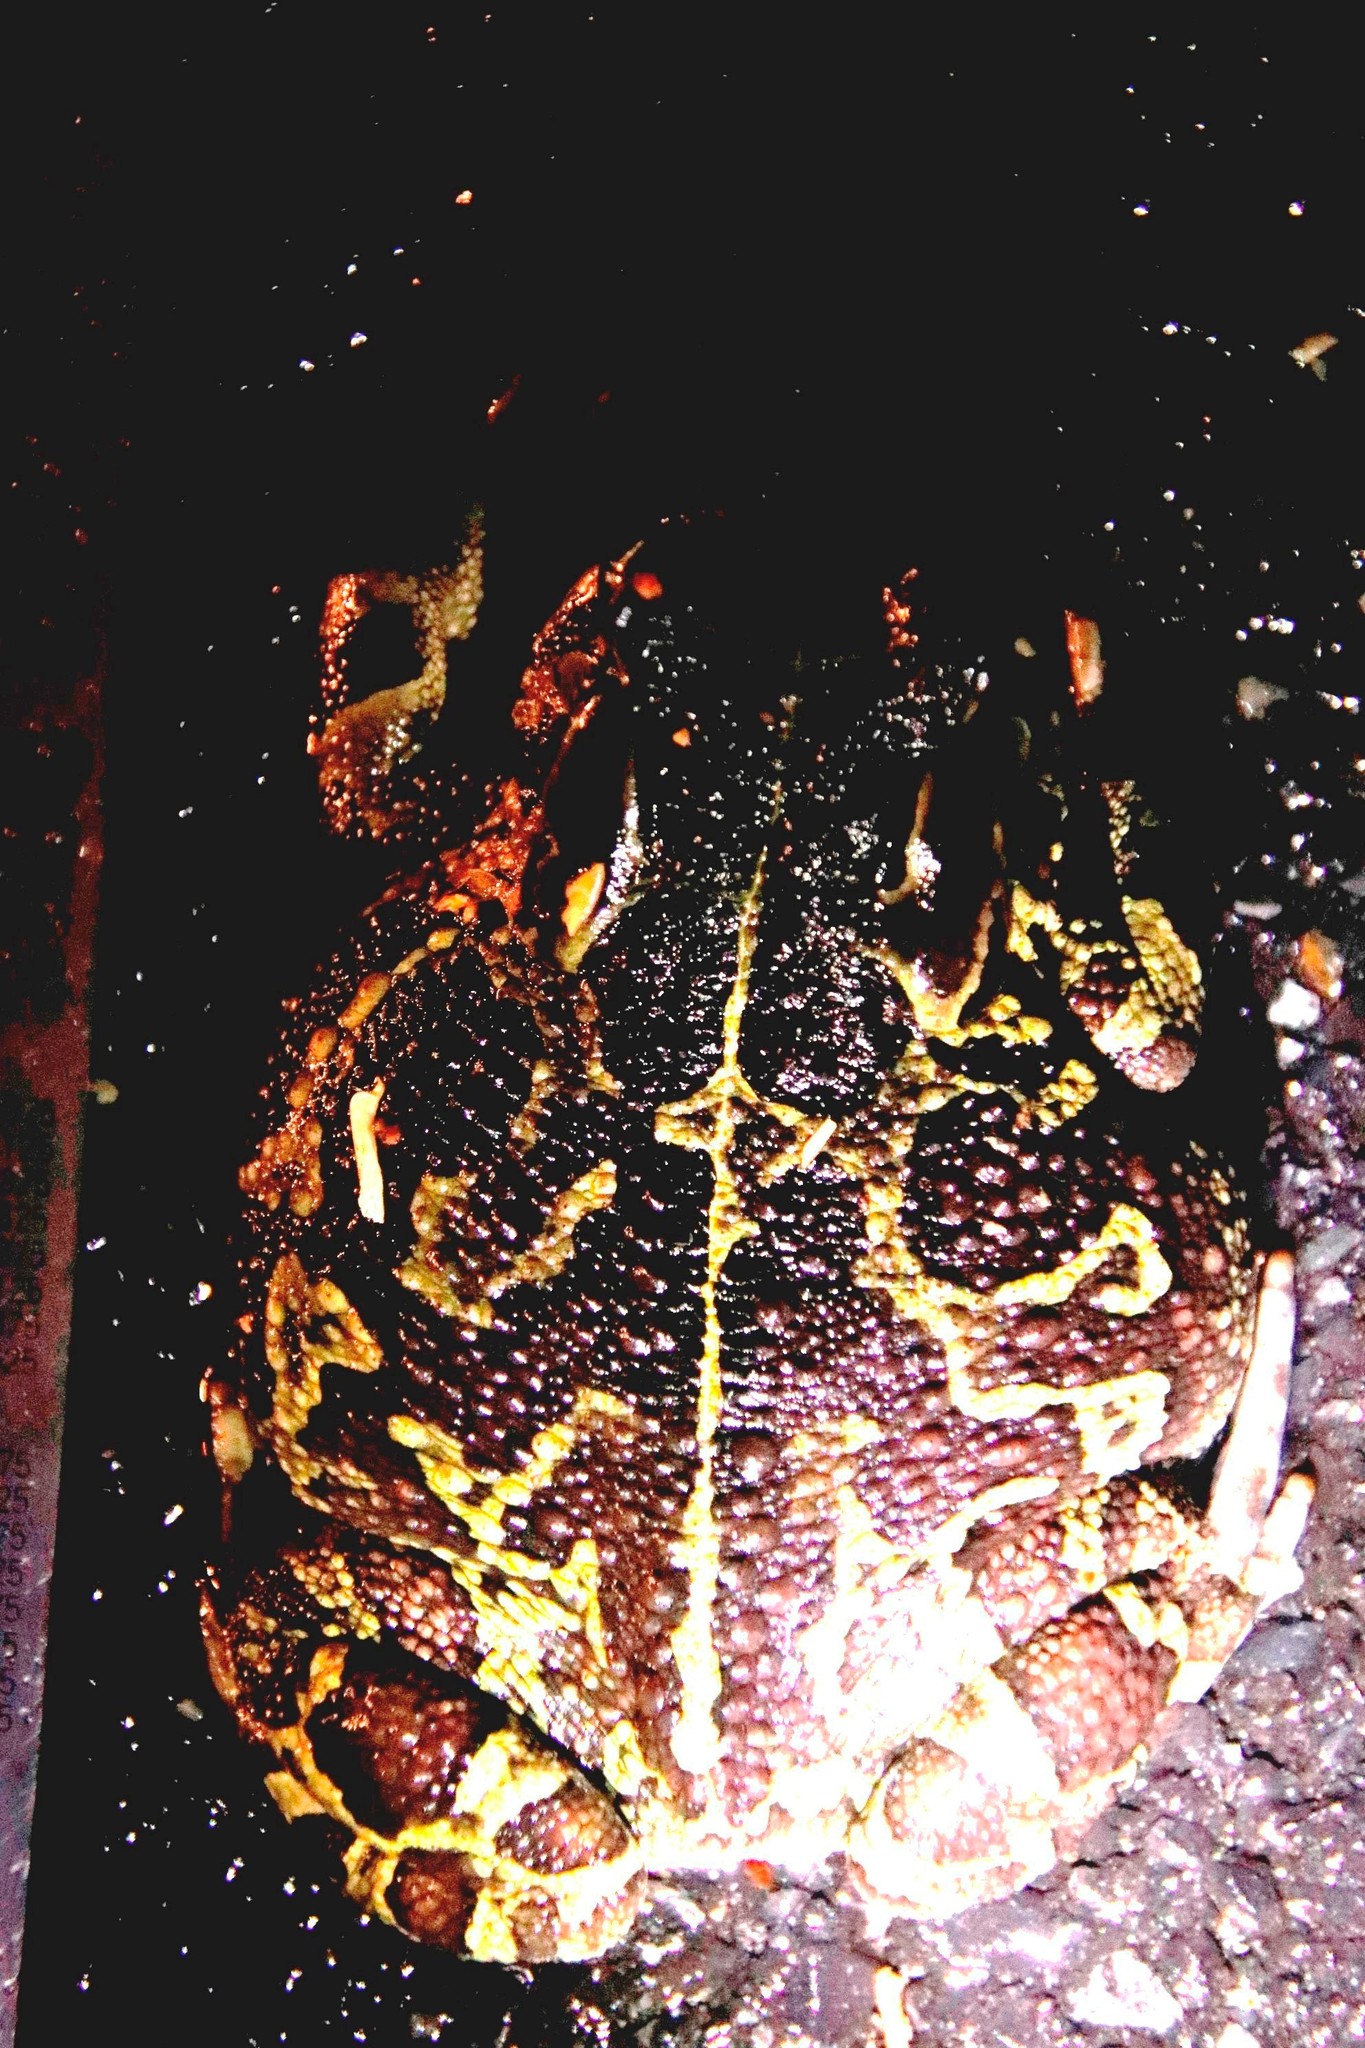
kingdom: Animalia
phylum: Chordata
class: Amphibia
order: Anura
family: Bufonidae
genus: Sclerophrys
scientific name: Sclerophrys pantherina
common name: Panther toad
